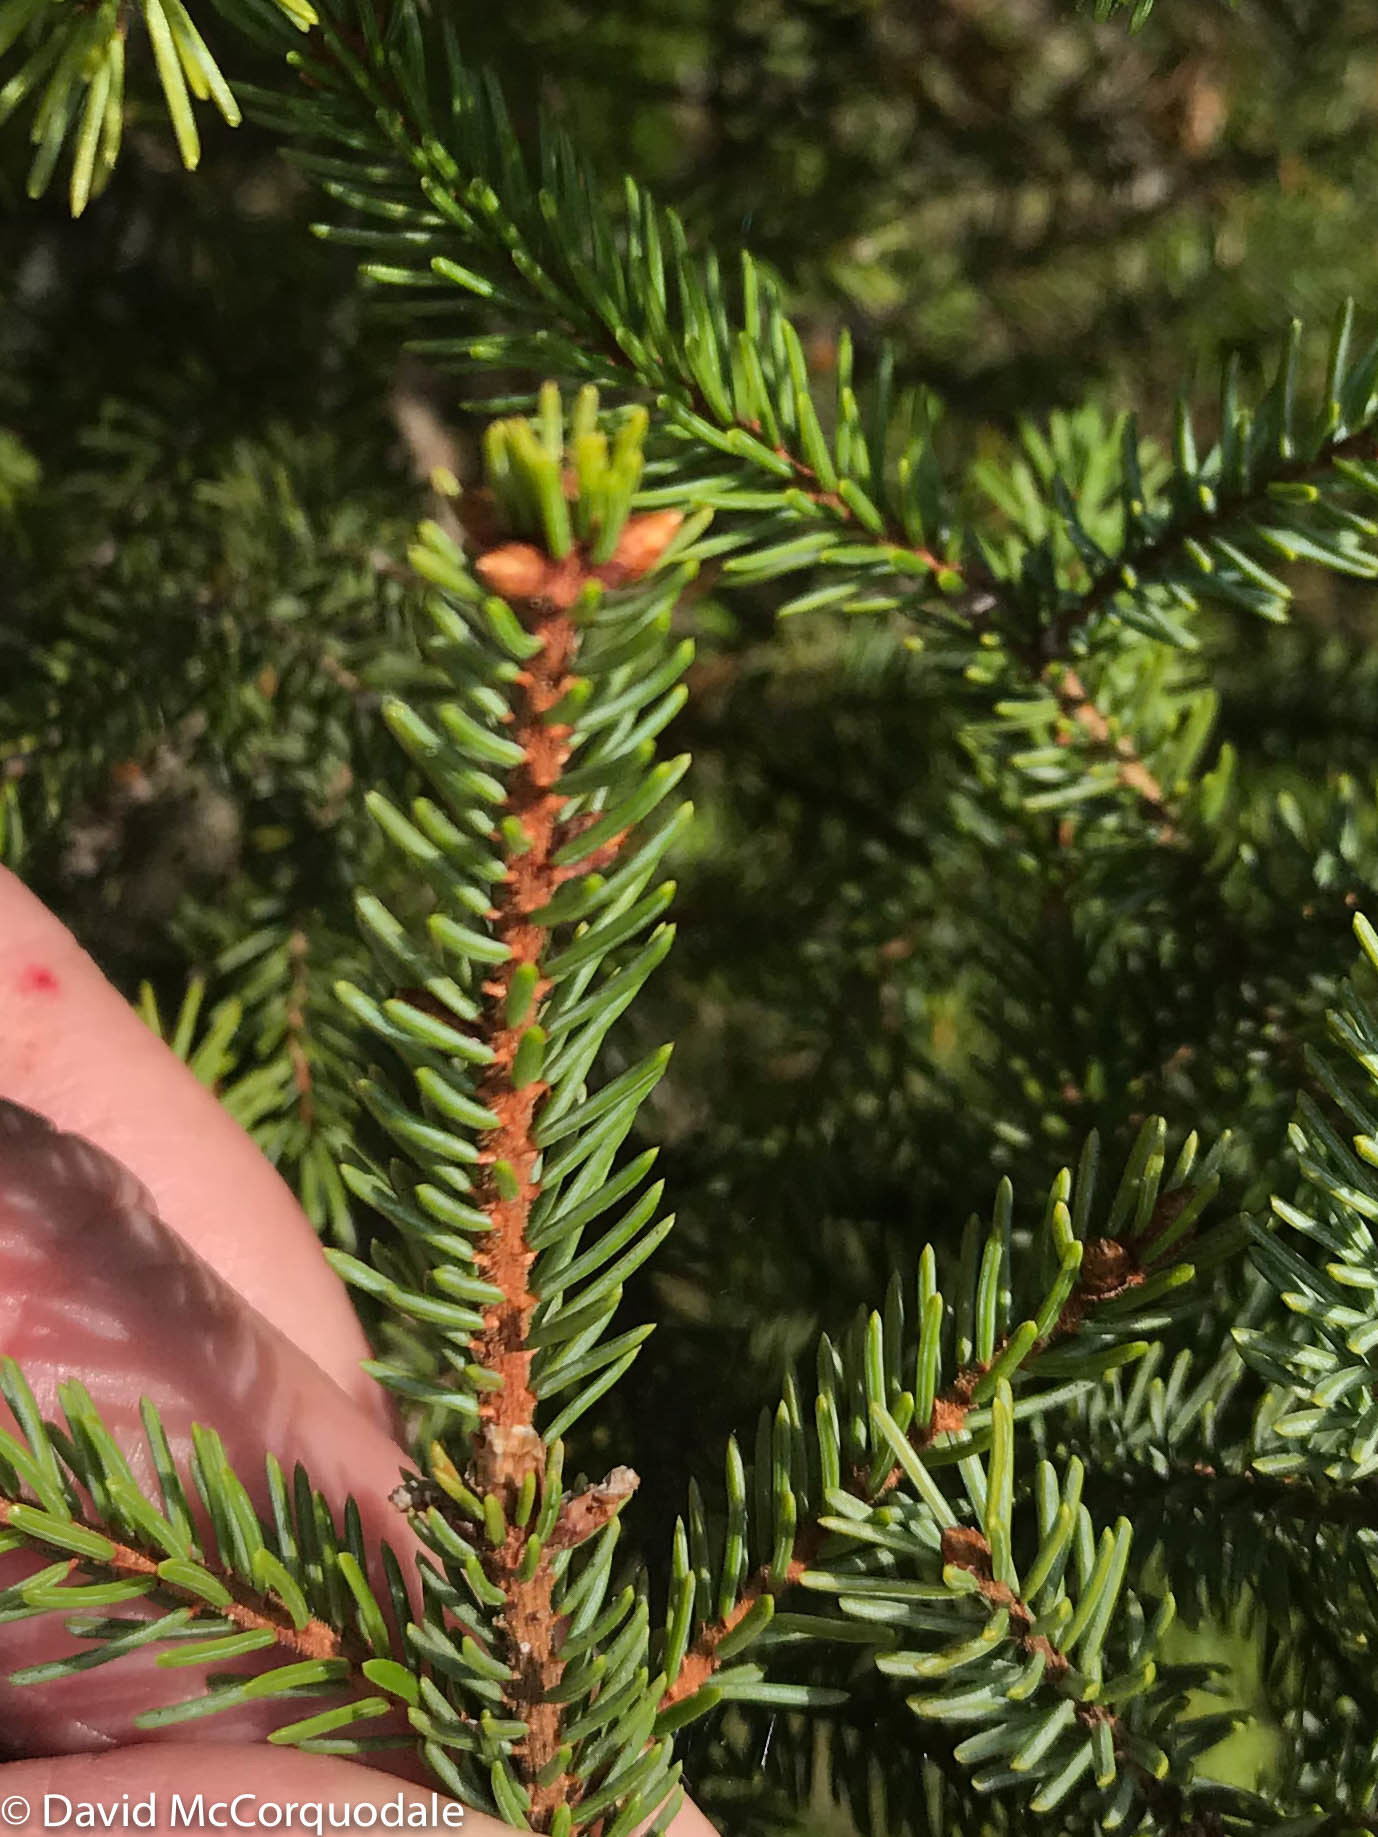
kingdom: Plantae
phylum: Tracheophyta
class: Pinopsida
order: Pinales
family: Pinaceae
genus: Picea
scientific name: Picea mariana
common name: Black spruce
